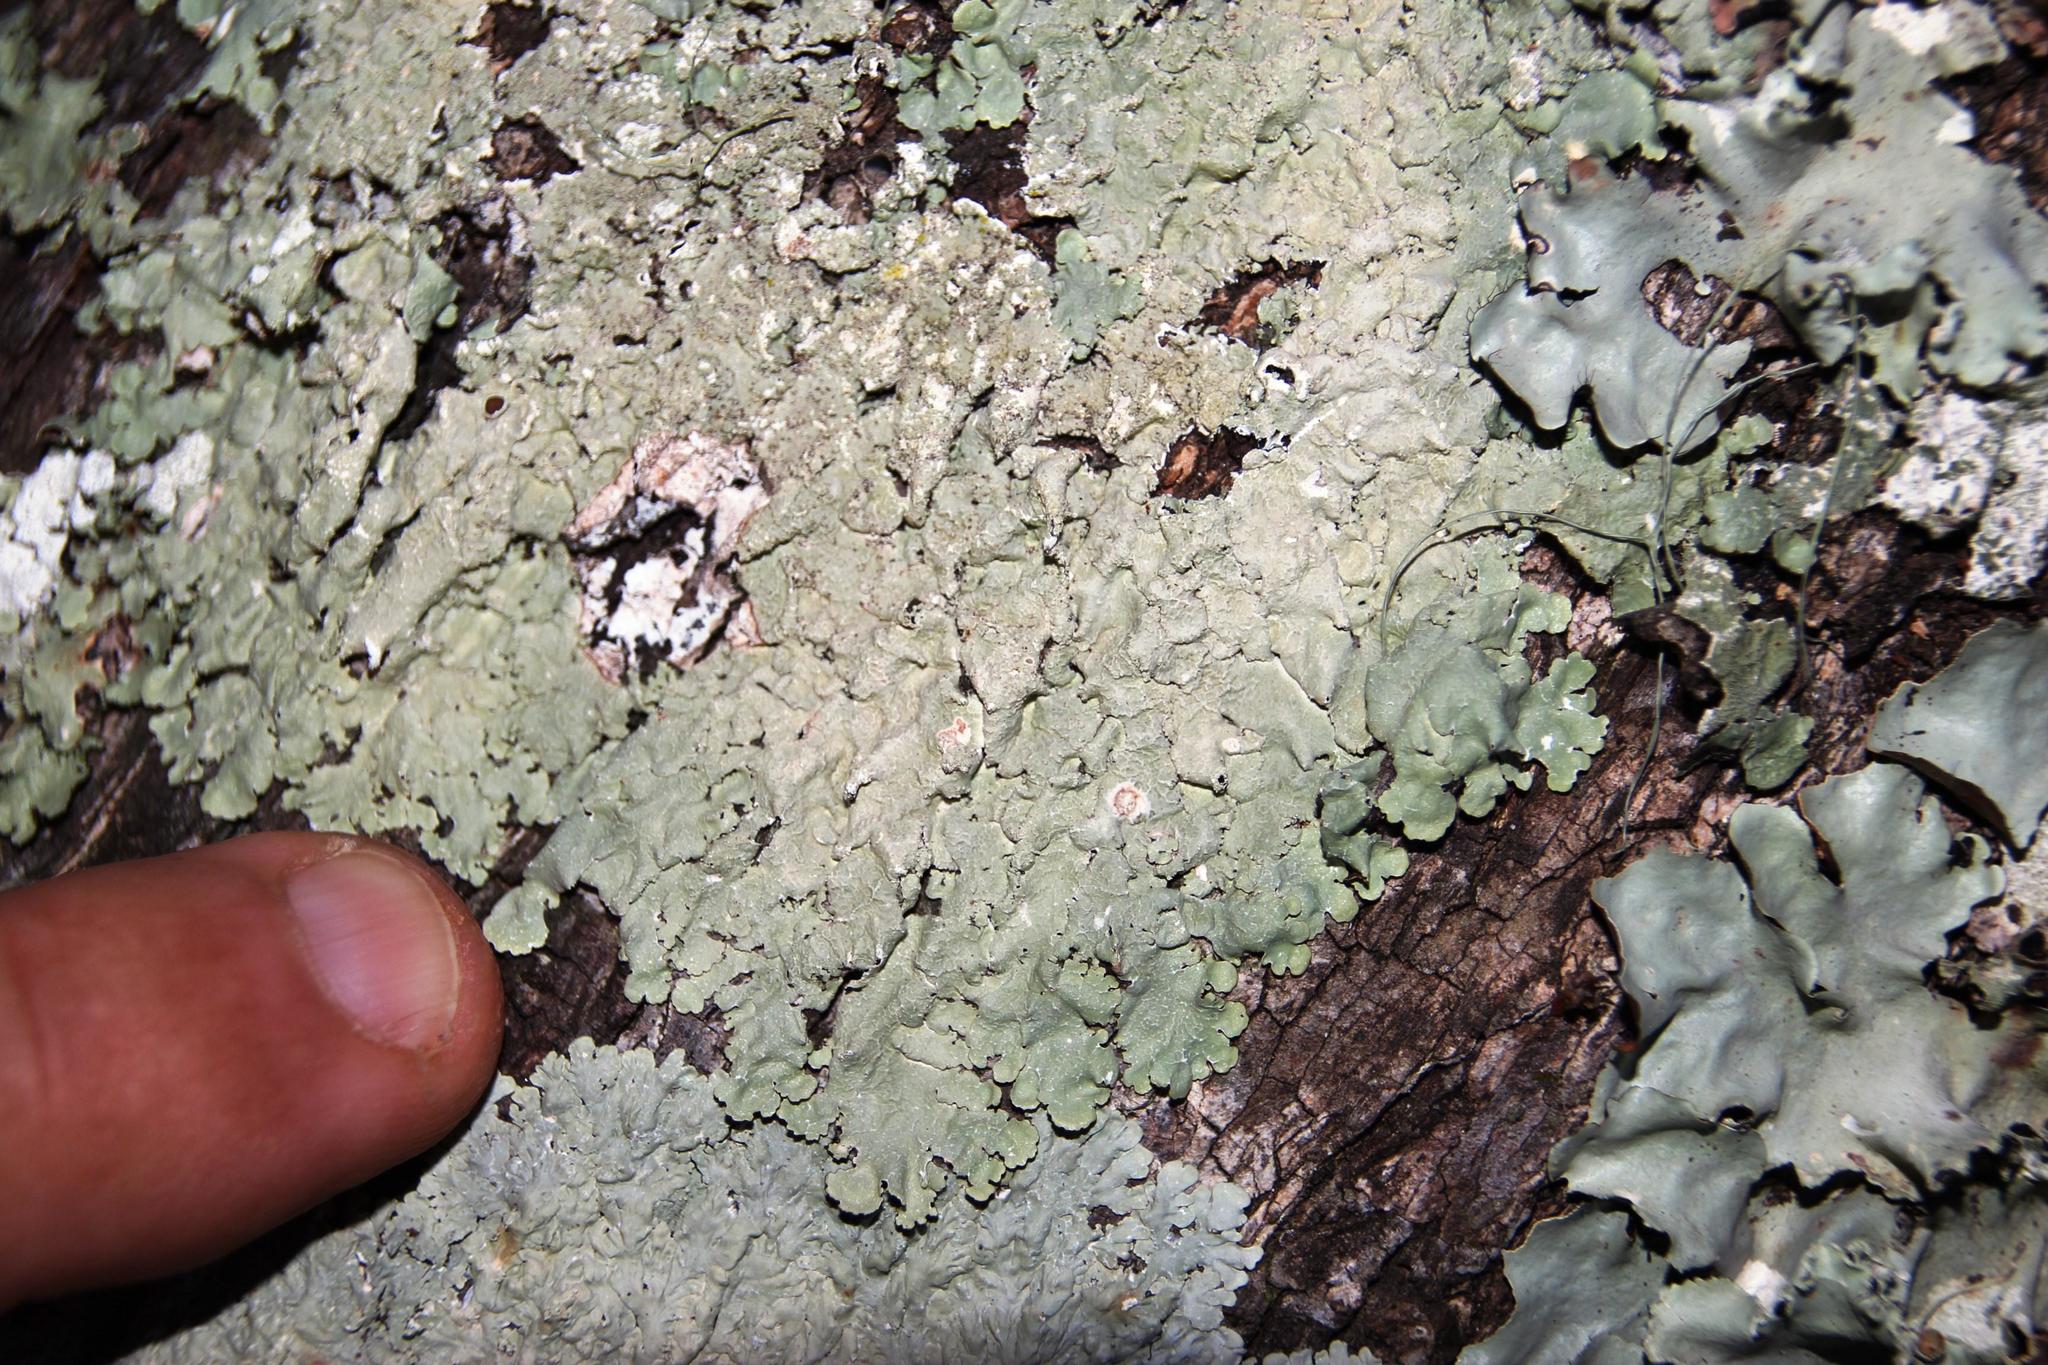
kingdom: Fungi
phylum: Ascomycota
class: Lecanoromycetes
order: Lecanorales
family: Parmeliaceae
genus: Flavopunctelia
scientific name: Flavopunctelia flaventior
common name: Speckled greenshield
